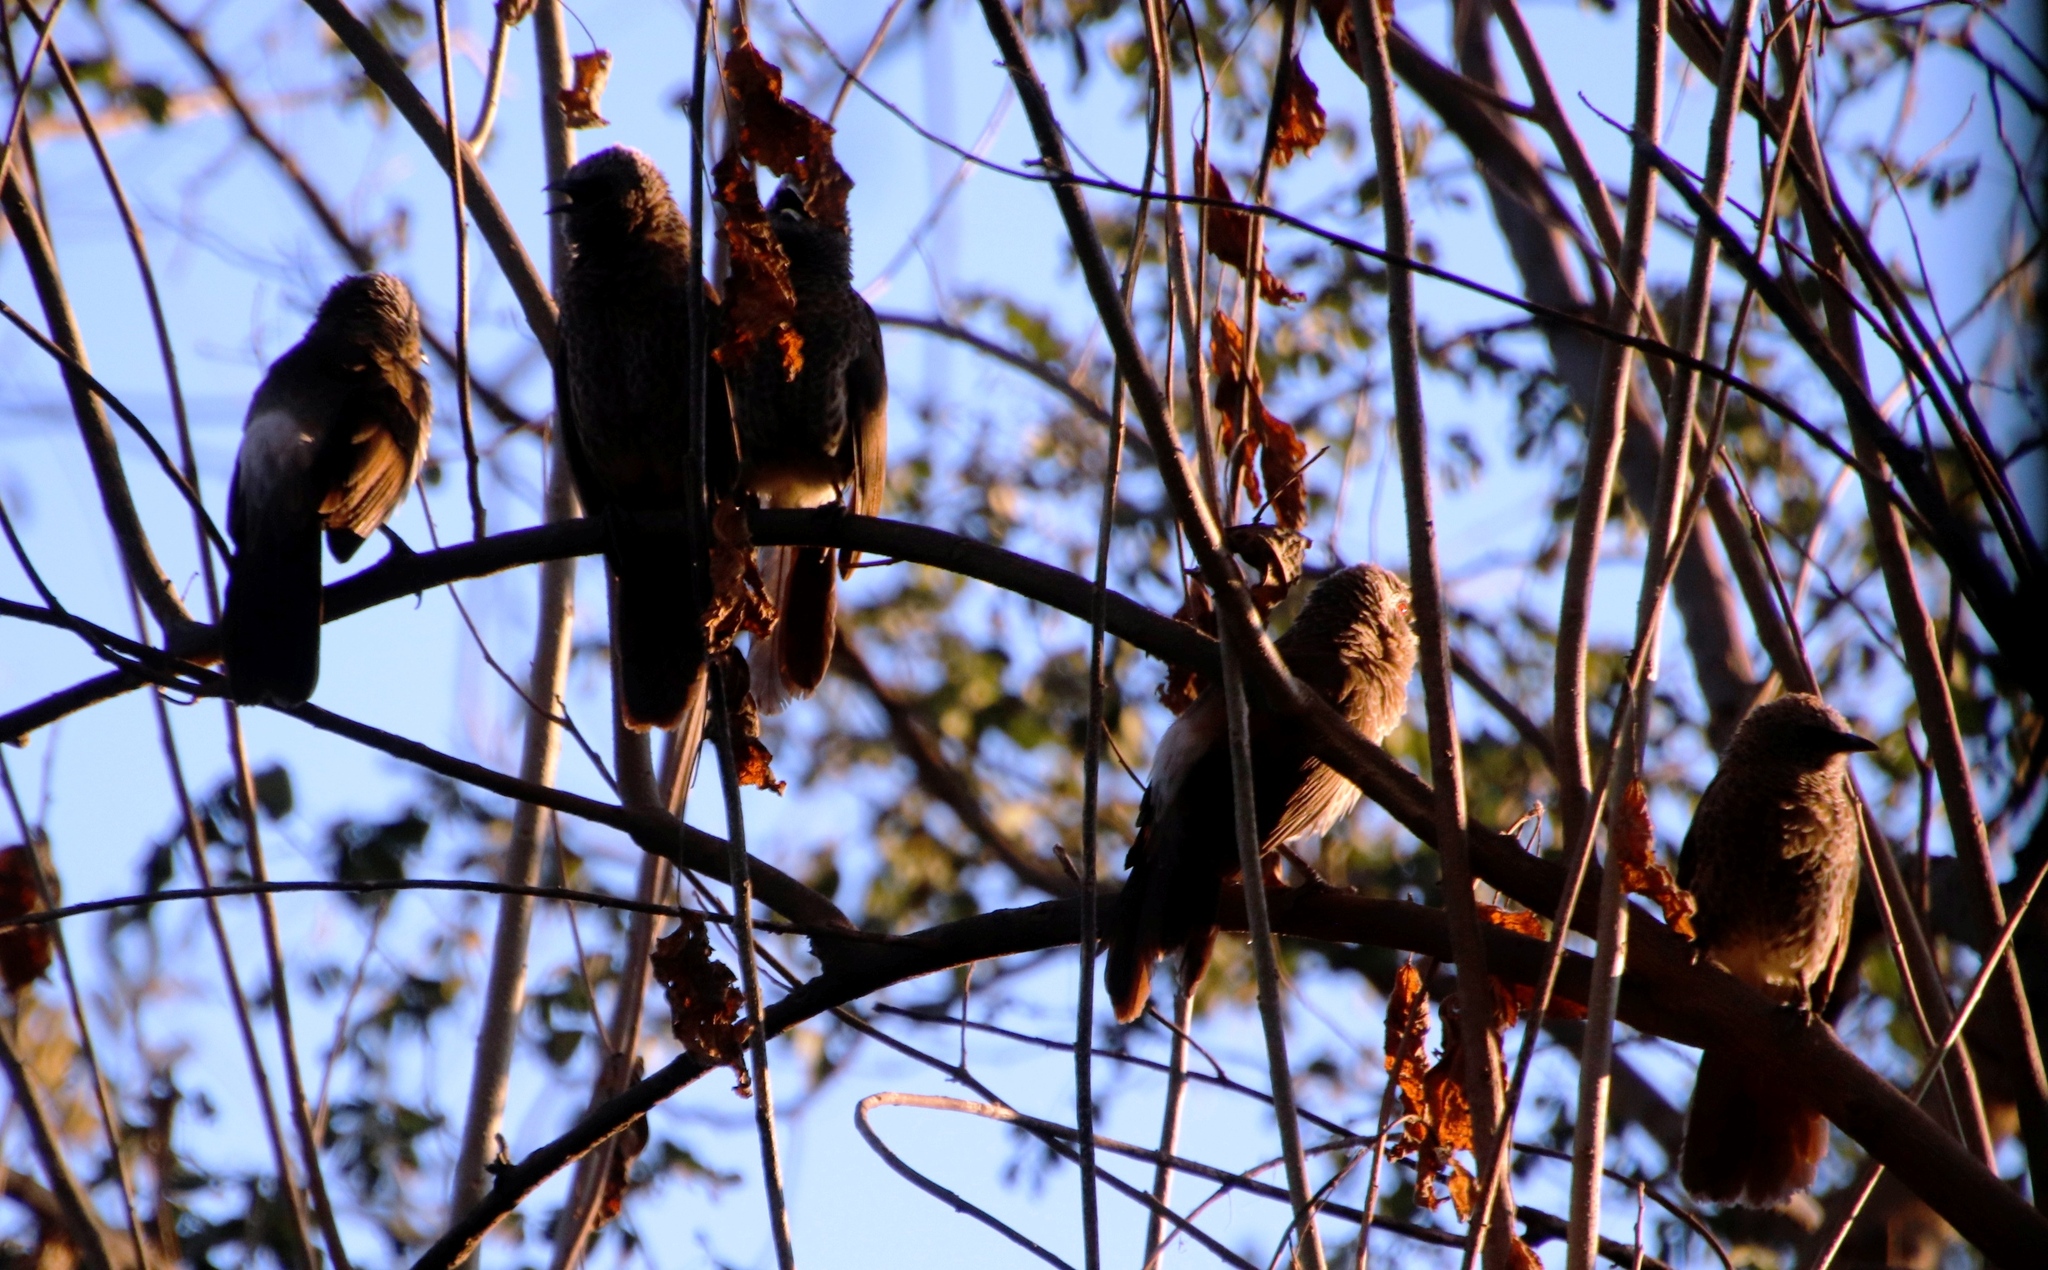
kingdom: Animalia
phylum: Chordata
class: Aves
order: Passeriformes
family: Leiothrichidae
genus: Turdoides
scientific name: Turdoides hartlaubii
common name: Hartlaub's babbler
